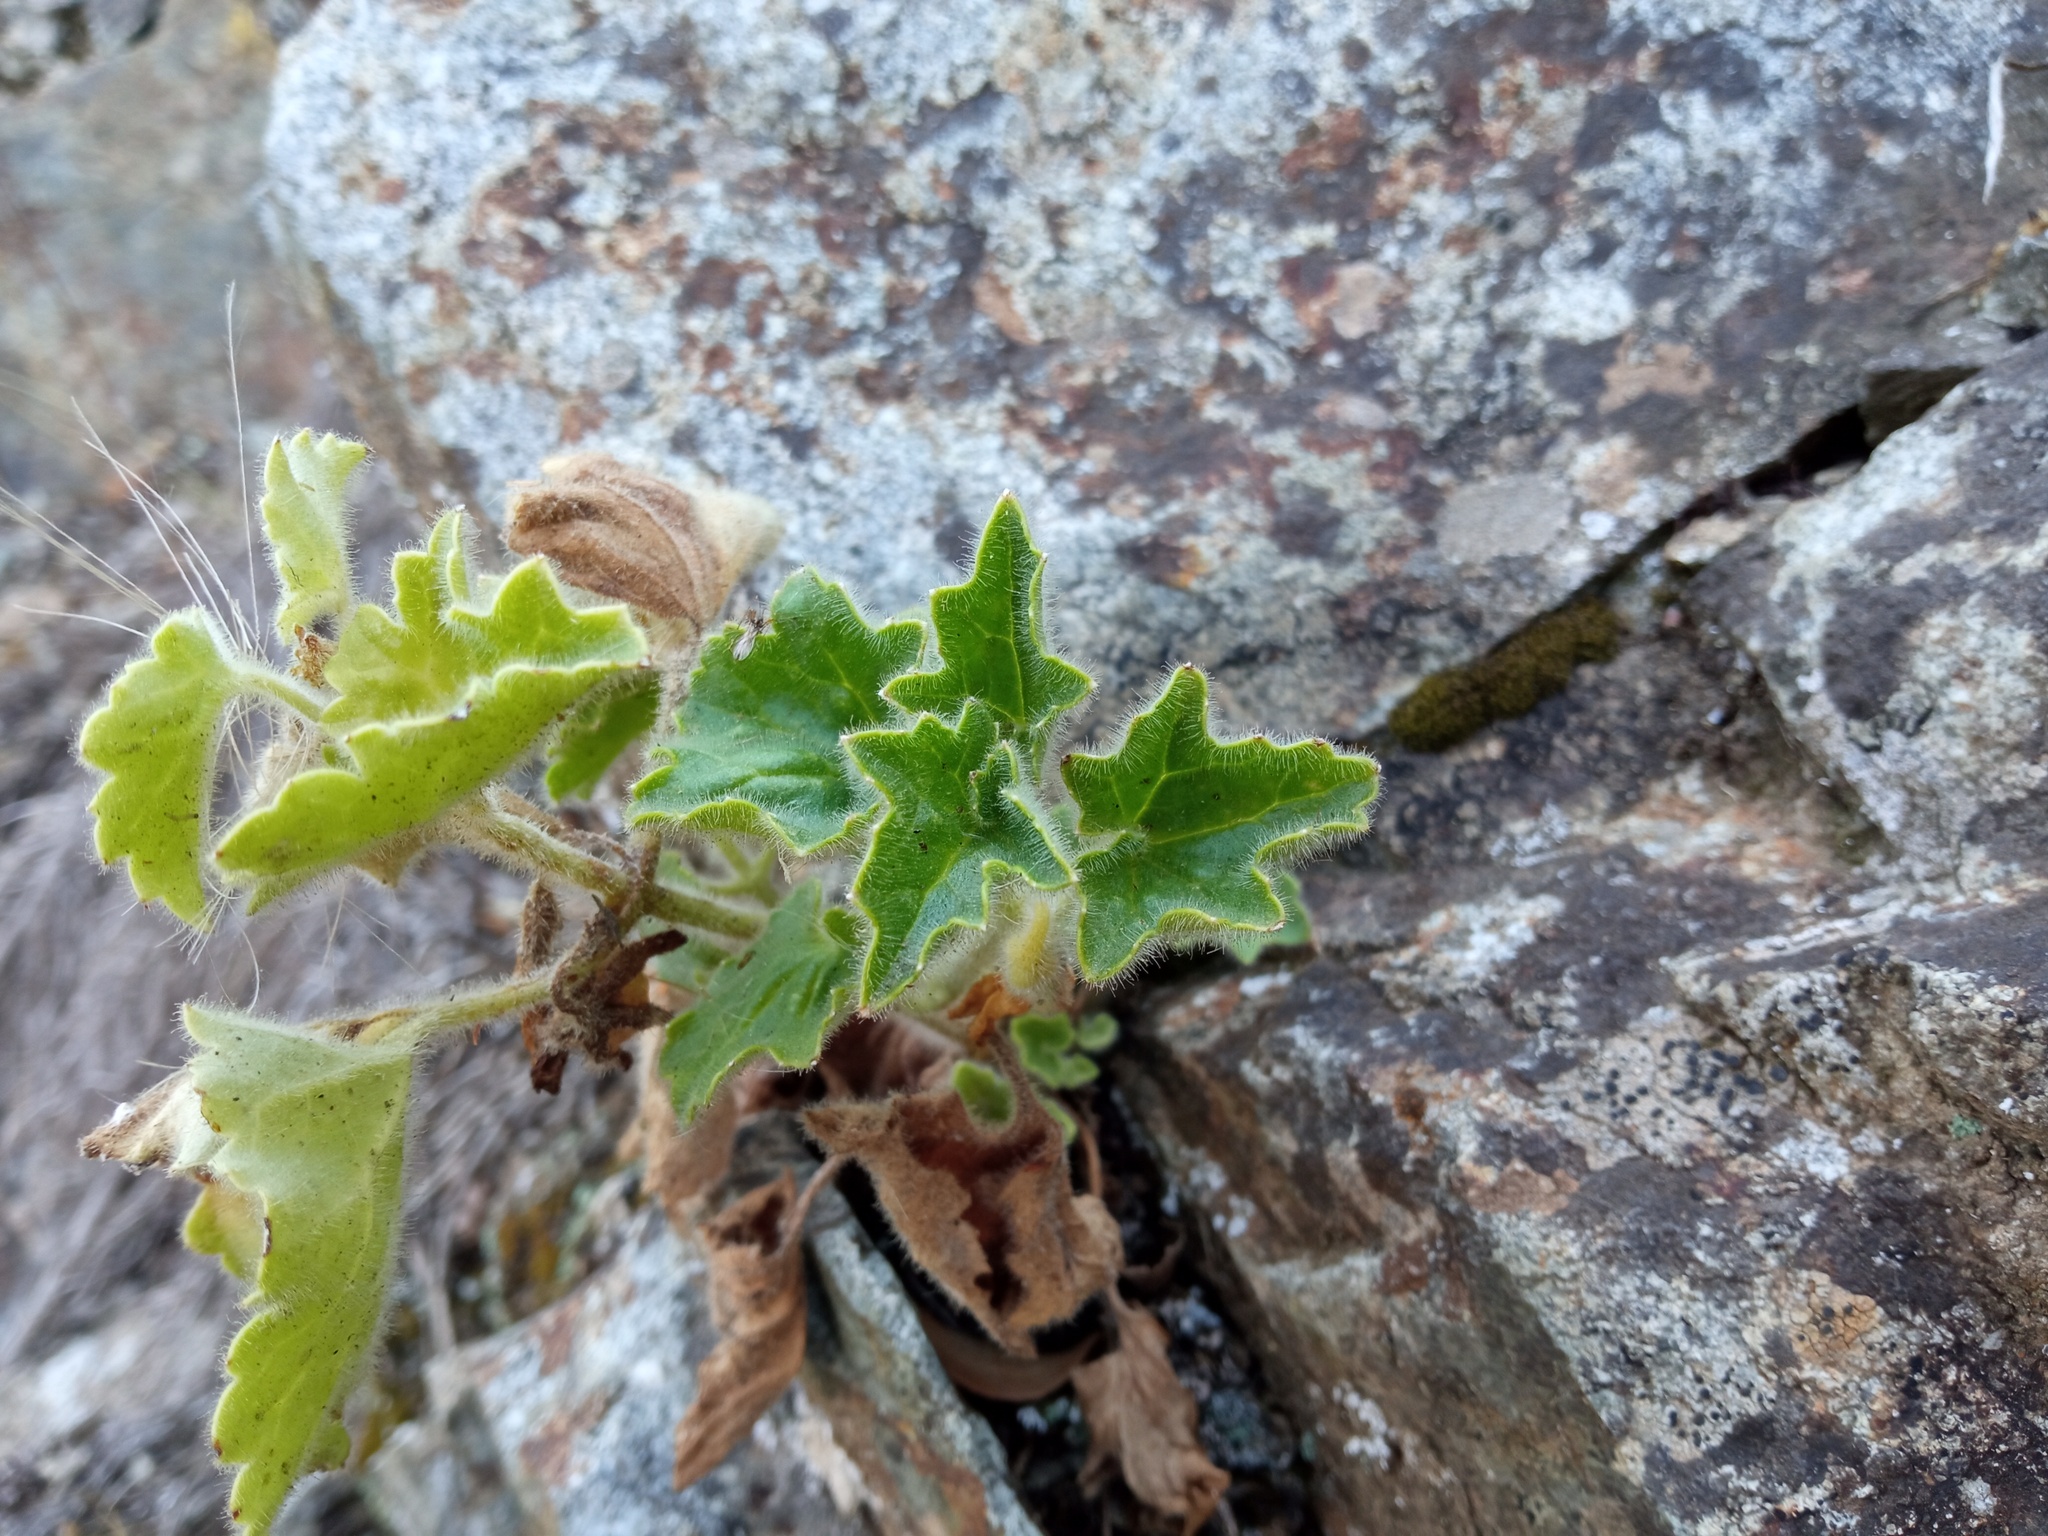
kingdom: Plantae
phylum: Tracheophyta
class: Magnoliopsida
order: Lamiales
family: Plantaginaceae
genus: Asarina
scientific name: Asarina procumbens
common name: Trailing snapdragon
